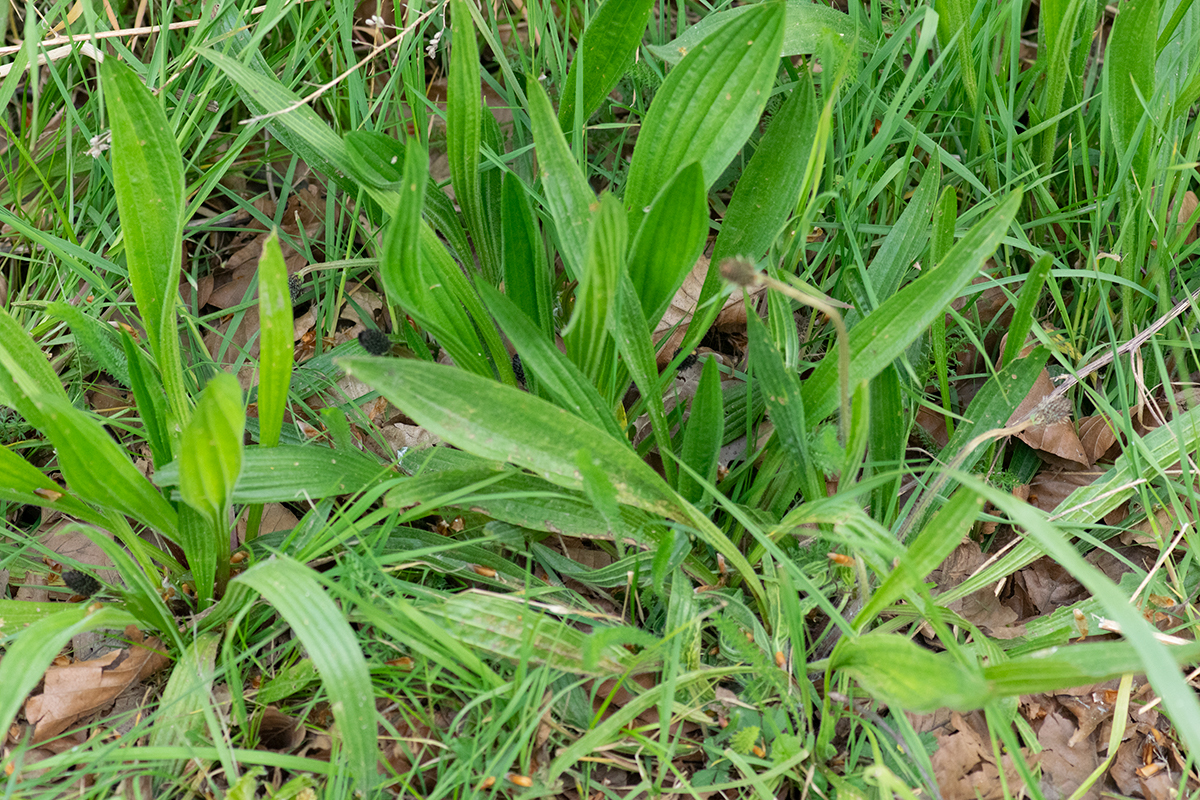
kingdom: Plantae
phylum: Tracheophyta
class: Magnoliopsida
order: Lamiales
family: Plantaginaceae
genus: Plantago
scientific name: Plantago lanceolata
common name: Ribwort plantain
